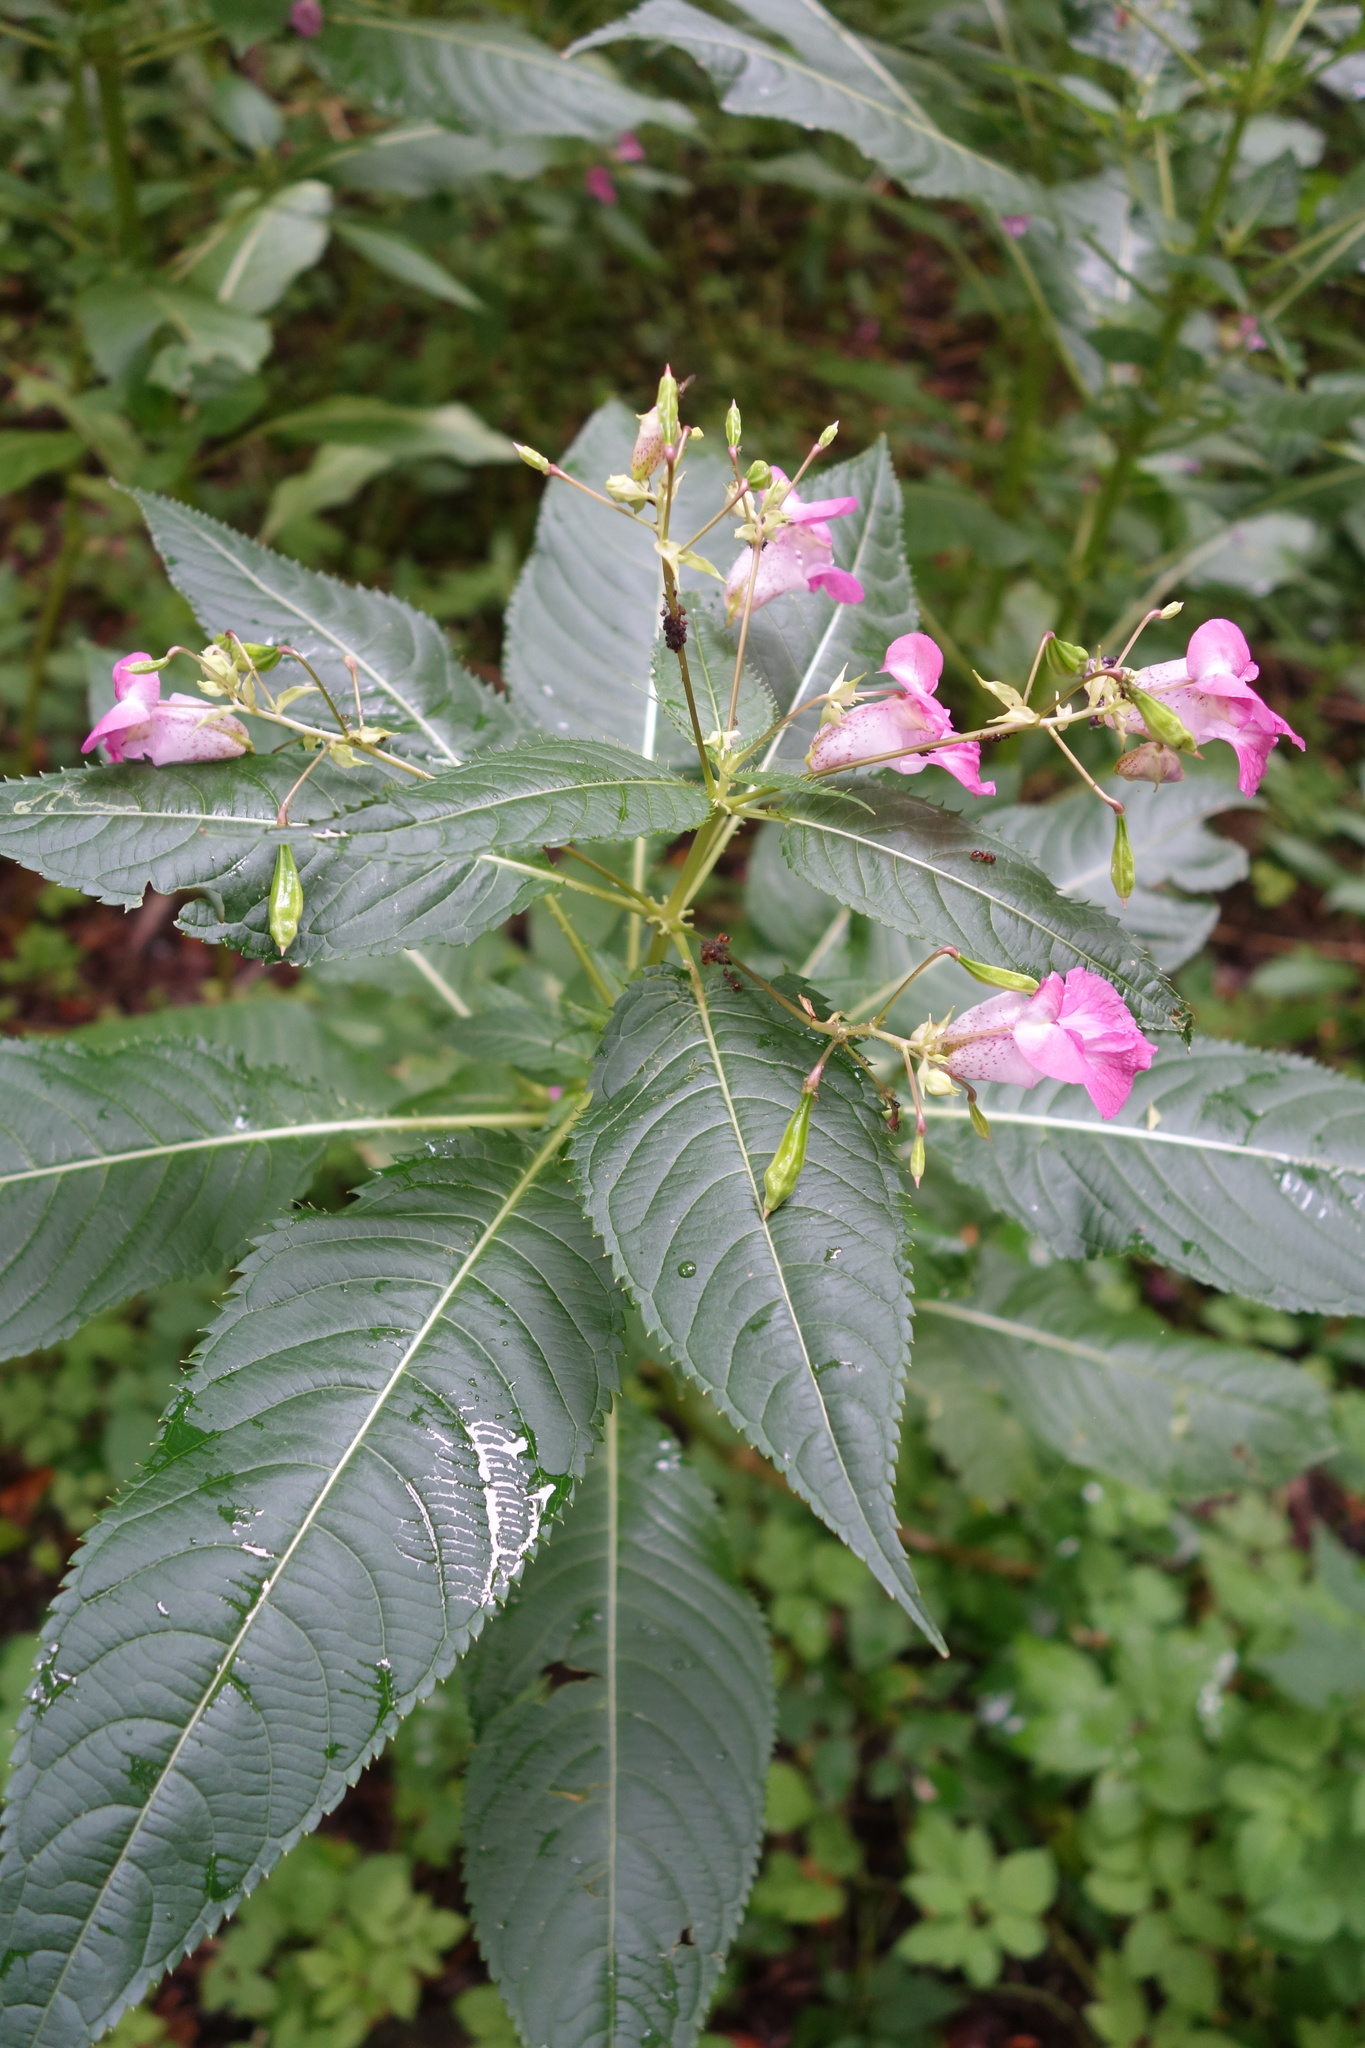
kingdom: Plantae
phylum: Tracheophyta
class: Magnoliopsida
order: Ericales
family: Balsaminaceae
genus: Impatiens
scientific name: Impatiens glandulifera
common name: Himalayan balsam
